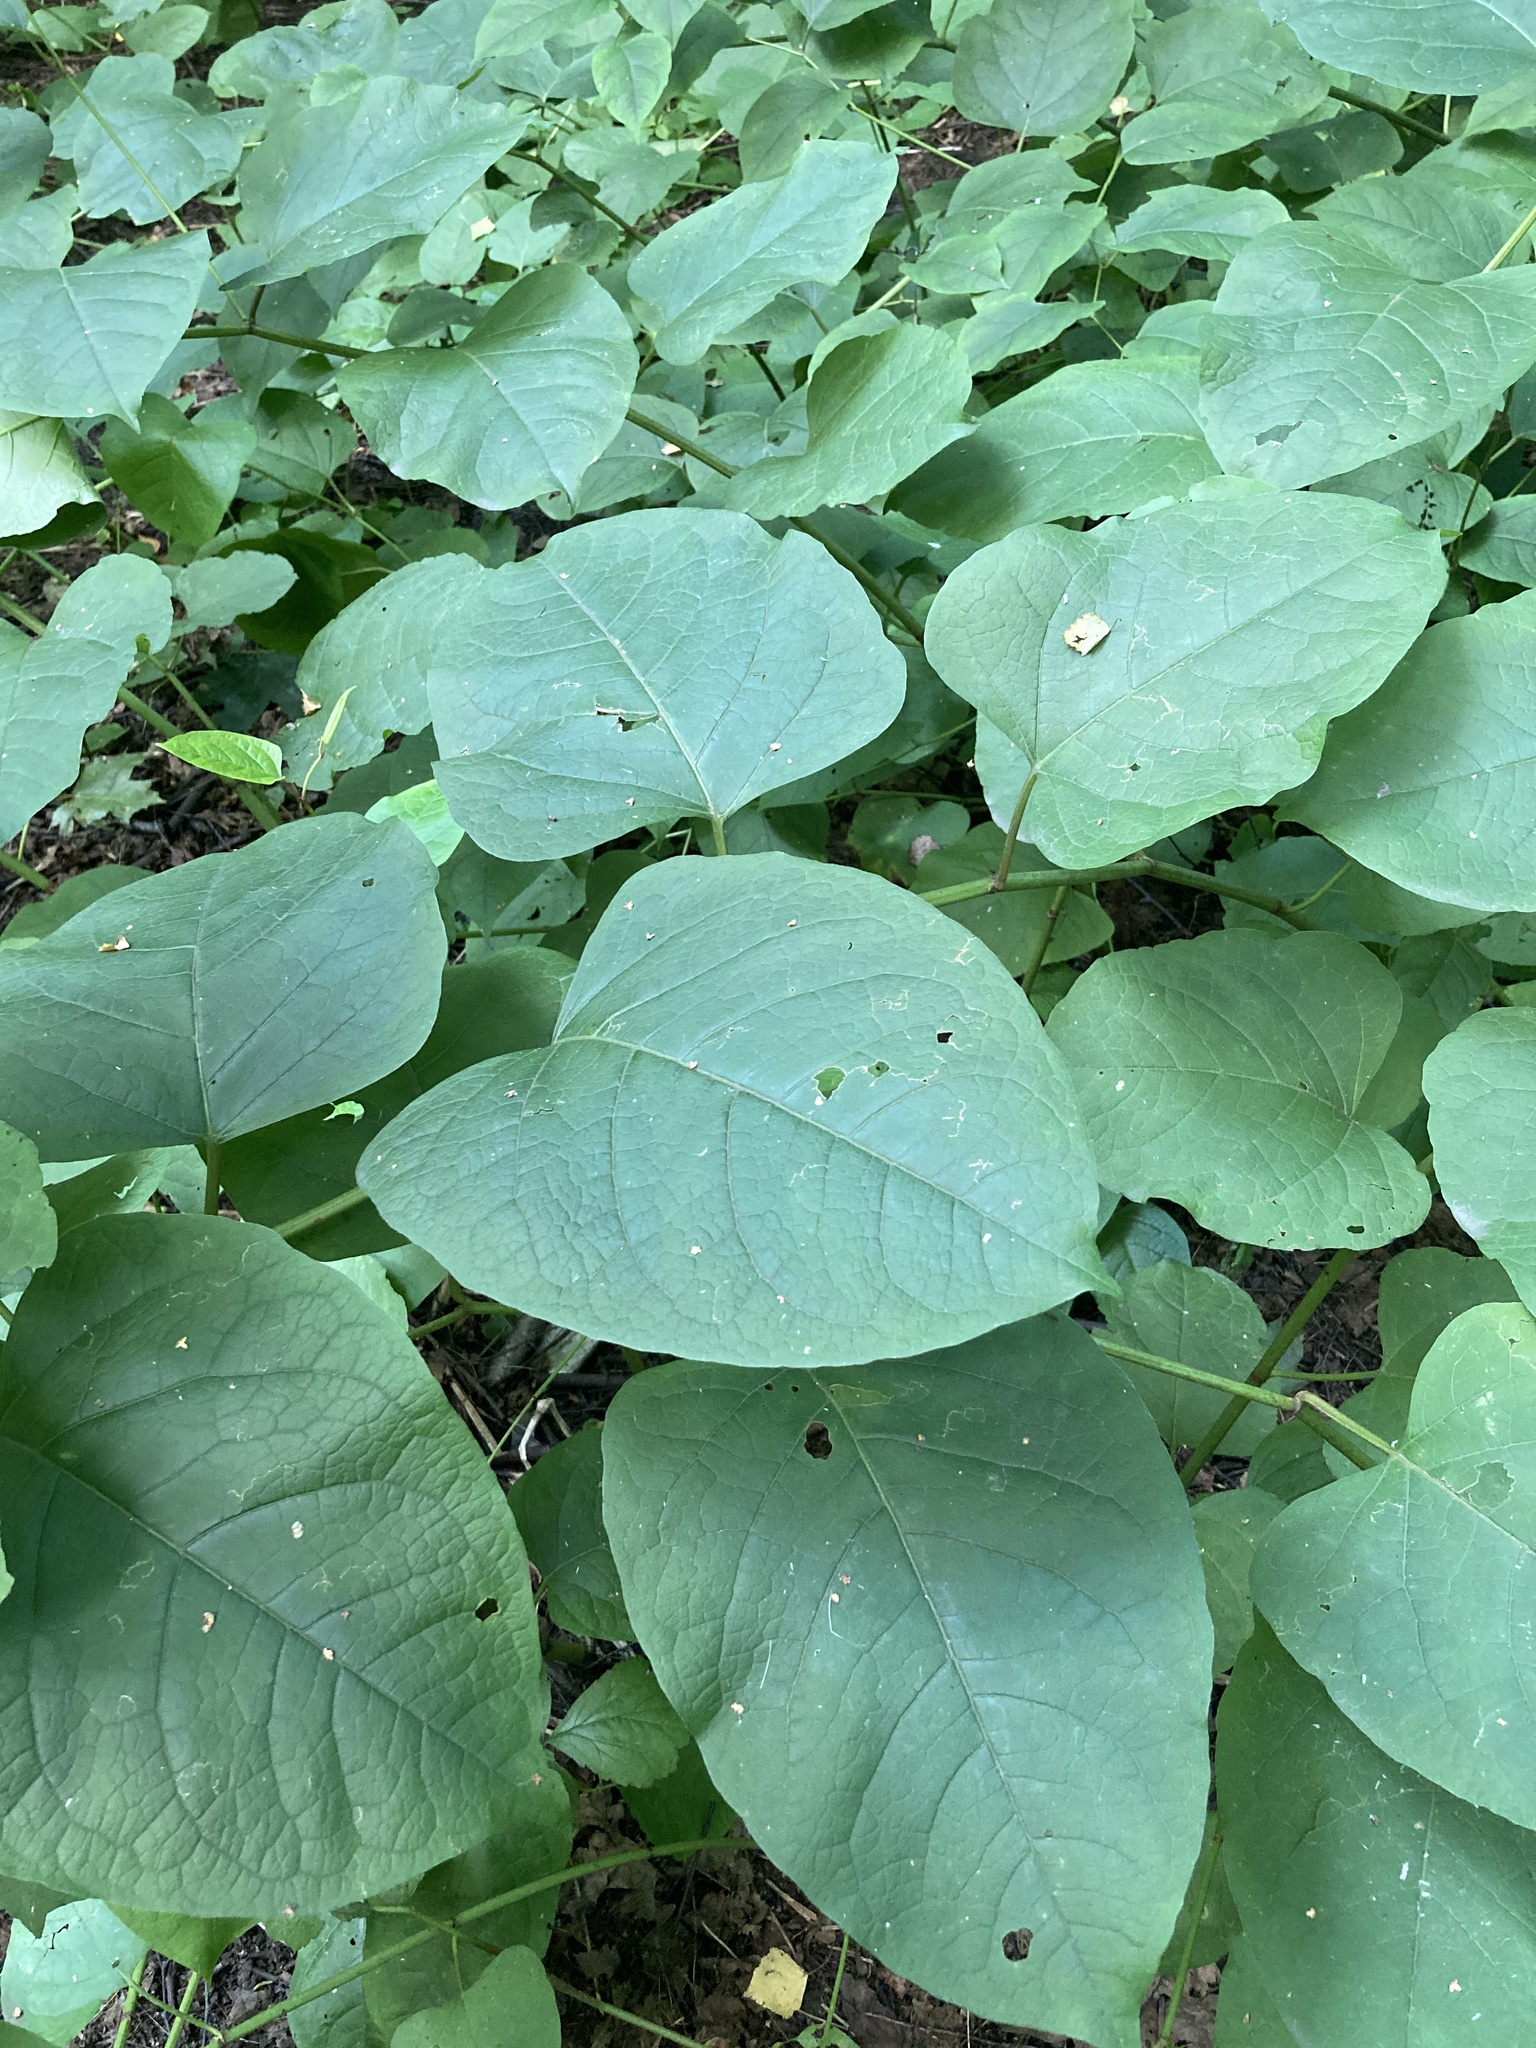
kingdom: Plantae
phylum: Tracheophyta
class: Magnoliopsida
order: Caryophyllales
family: Polygonaceae
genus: Reynoutria
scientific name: Reynoutria bohemica
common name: Bohemian knotweed
